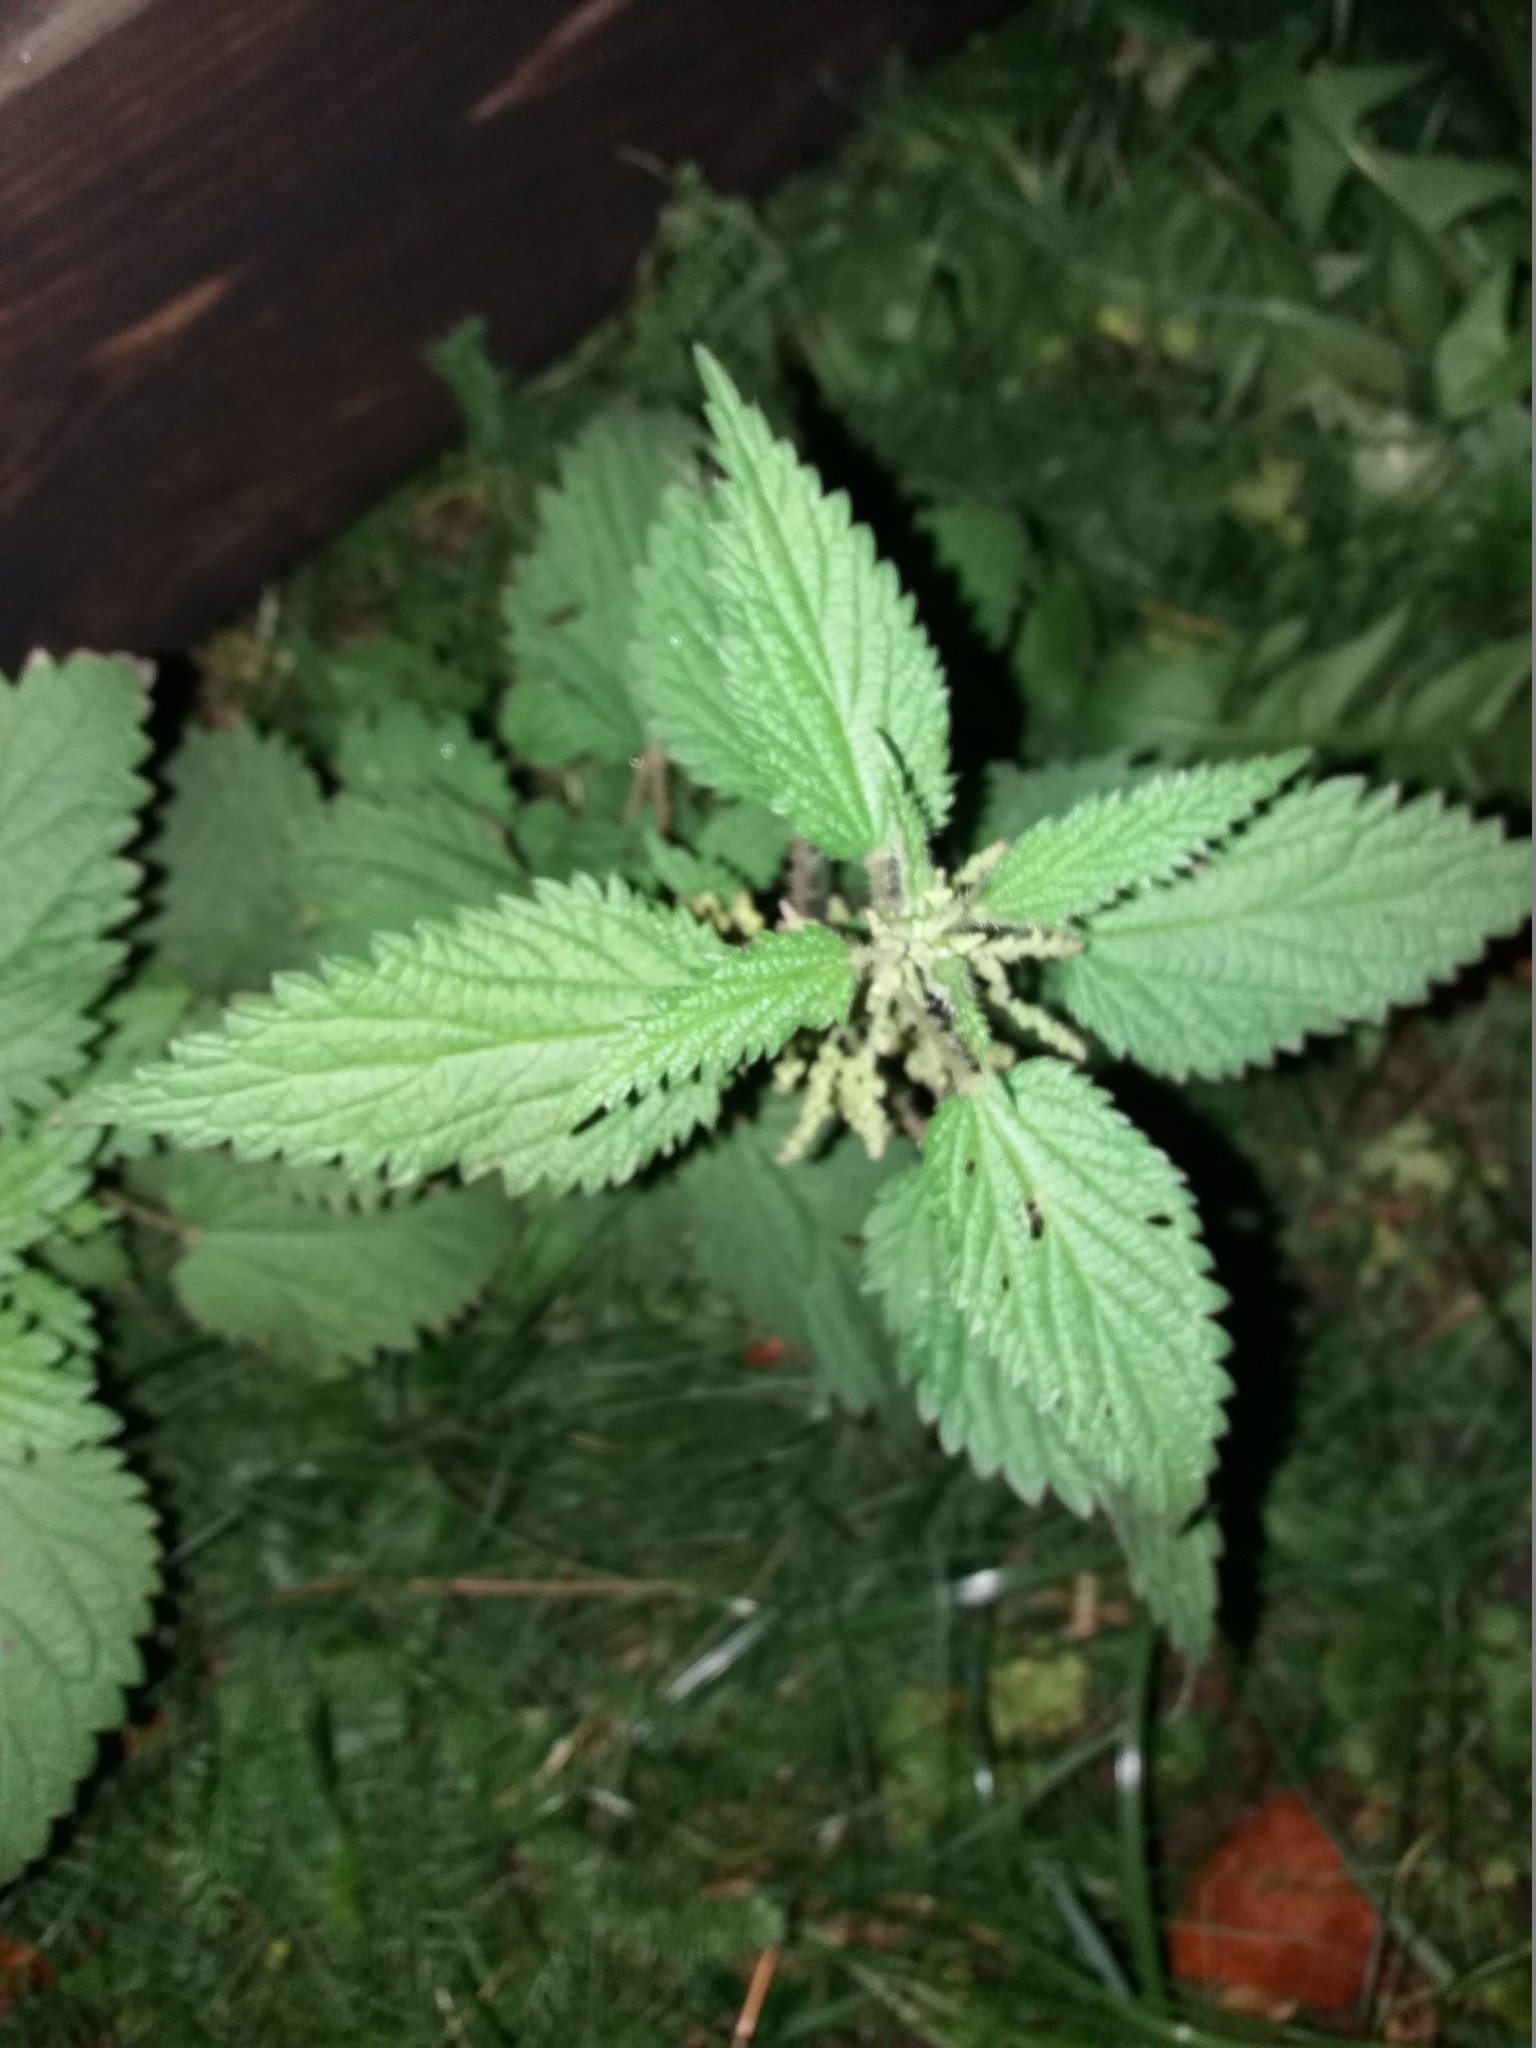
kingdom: Plantae
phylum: Tracheophyta
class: Magnoliopsida
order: Rosales
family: Urticaceae
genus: Urtica
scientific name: Urtica dioica
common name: Common nettle
